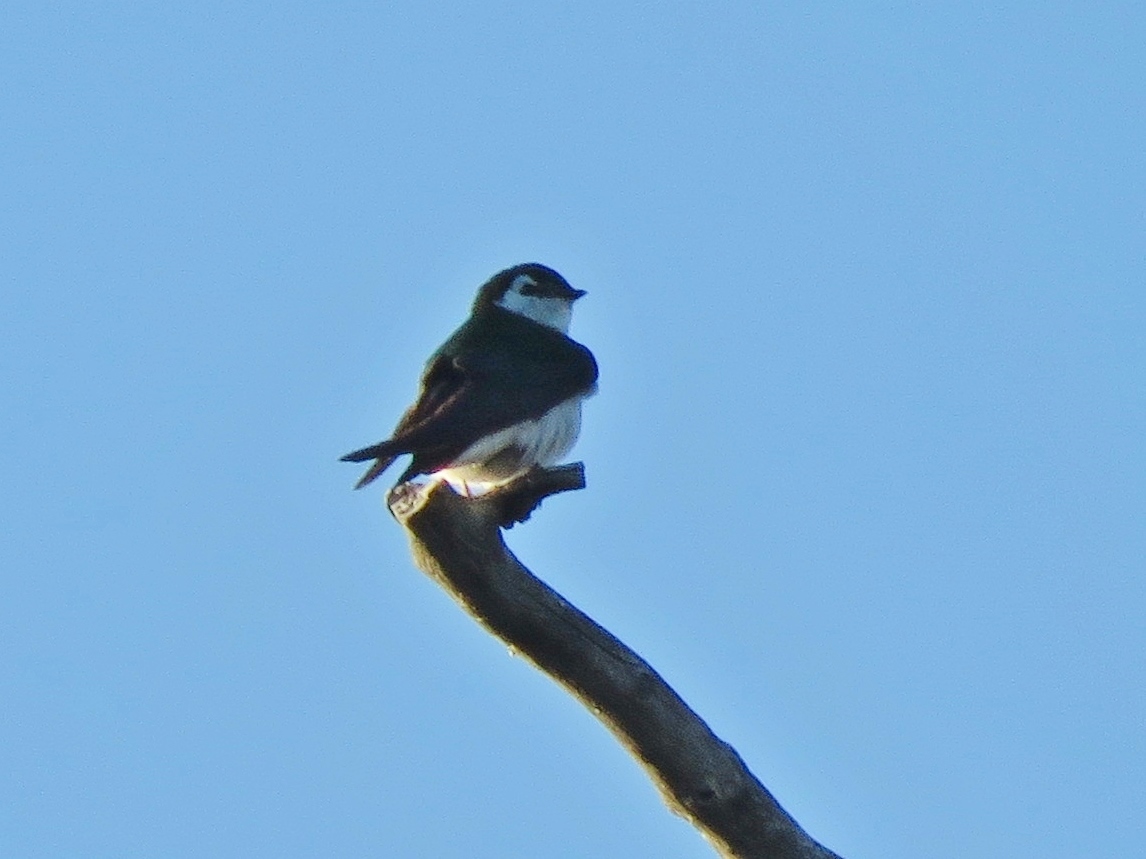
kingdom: Animalia
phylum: Chordata
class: Aves
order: Passeriformes
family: Hirundinidae
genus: Tachycineta
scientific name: Tachycineta thalassina
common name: Violet-green swallow
